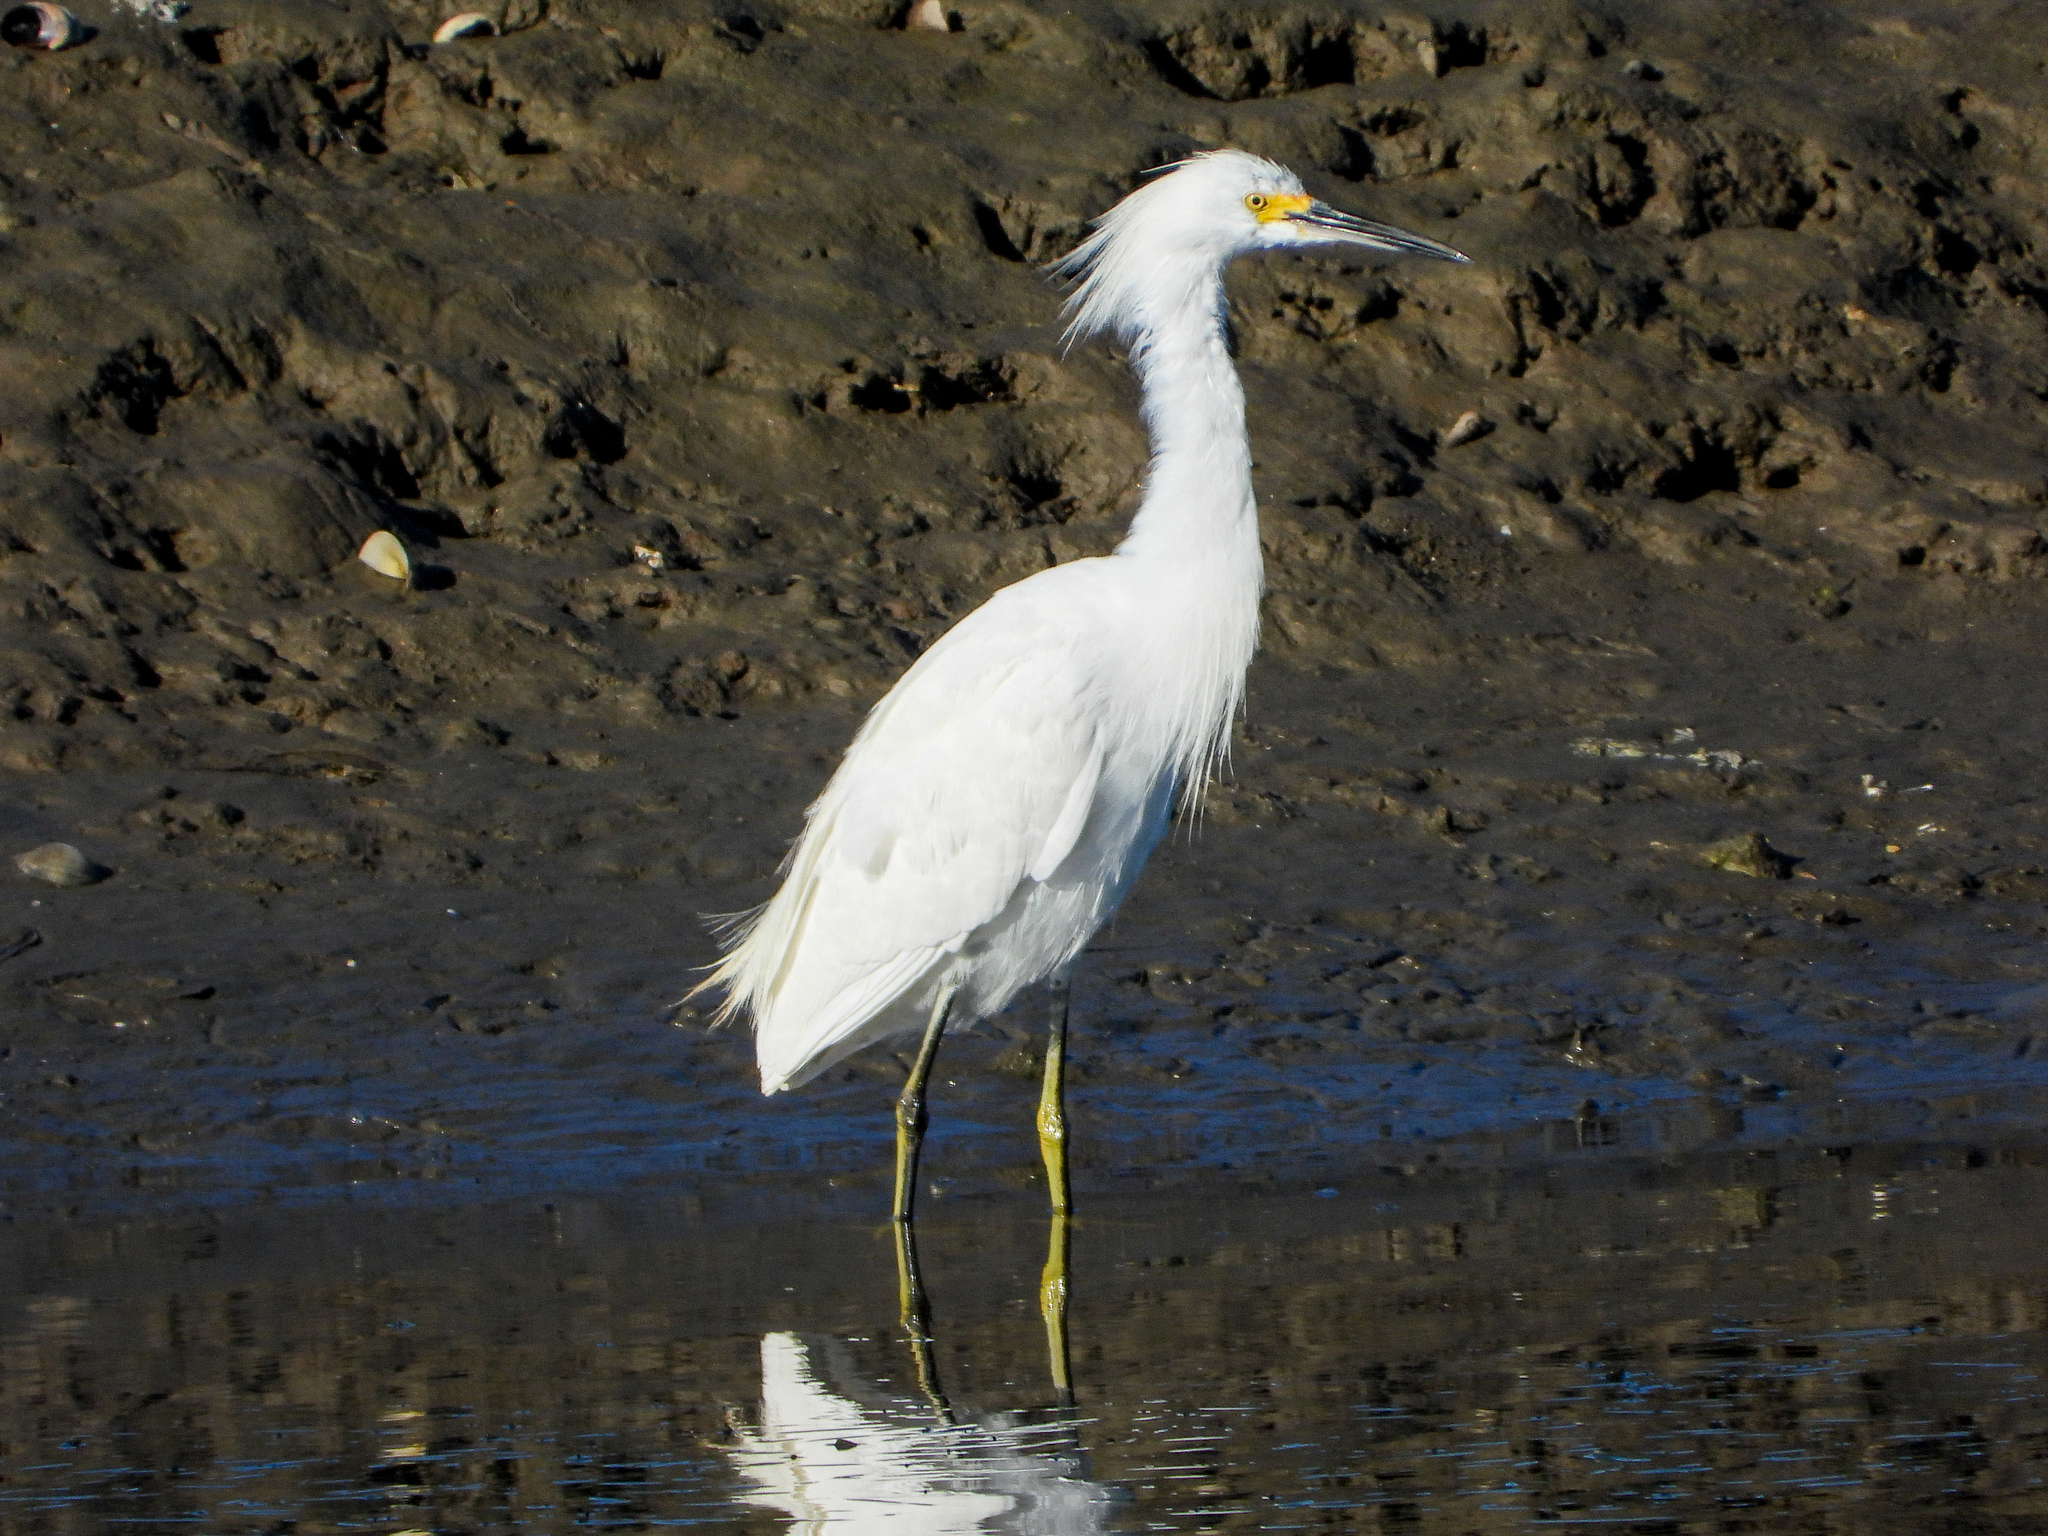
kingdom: Animalia
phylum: Chordata
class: Aves
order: Pelecaniformes
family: Ardeidae
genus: Egretta
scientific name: Egretta thula
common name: Snowy egret
